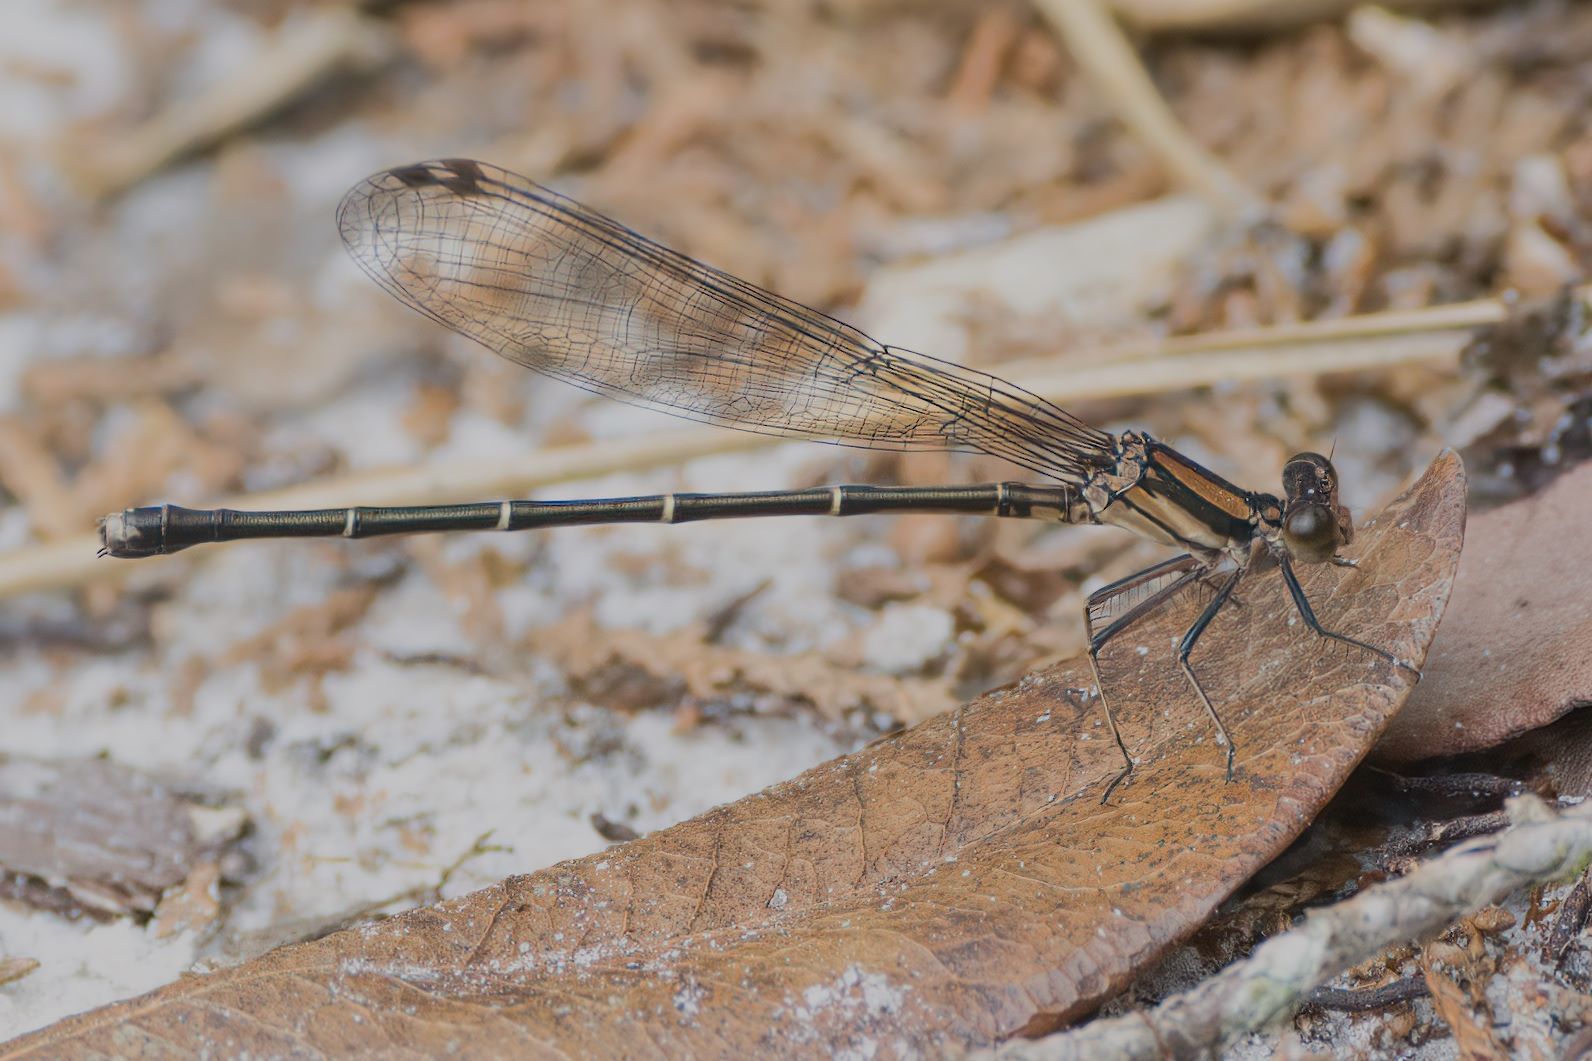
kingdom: Animalia
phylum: Arthropoda
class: Insecta
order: Odonata
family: Coenagrionidae
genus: Argia
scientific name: Argia tibialis
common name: Blue-tipped dancer
